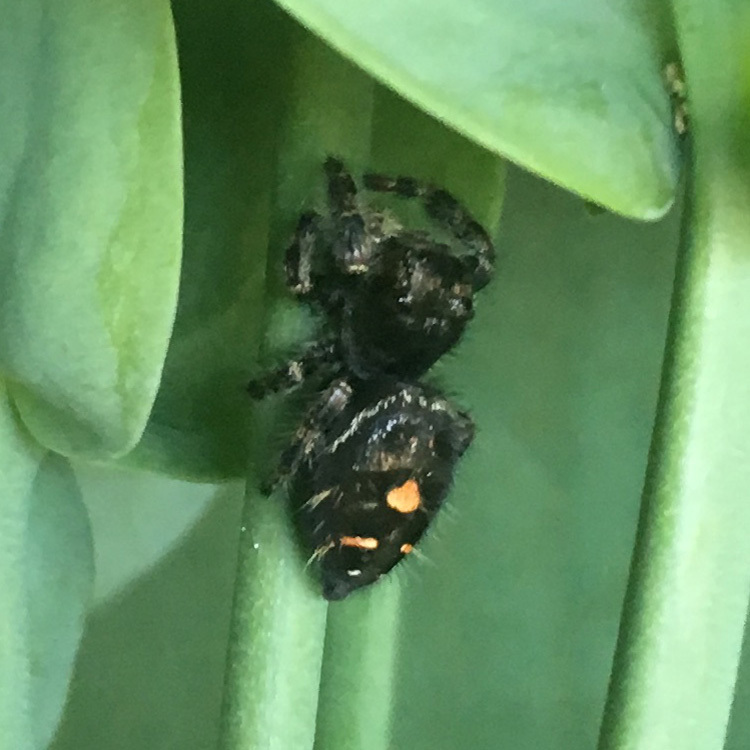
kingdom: Animalia
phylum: Arthropoda
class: Arachnida
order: Araneae
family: Salticidae
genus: Phidippus
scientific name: Phidippus audax
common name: Bold jumper
